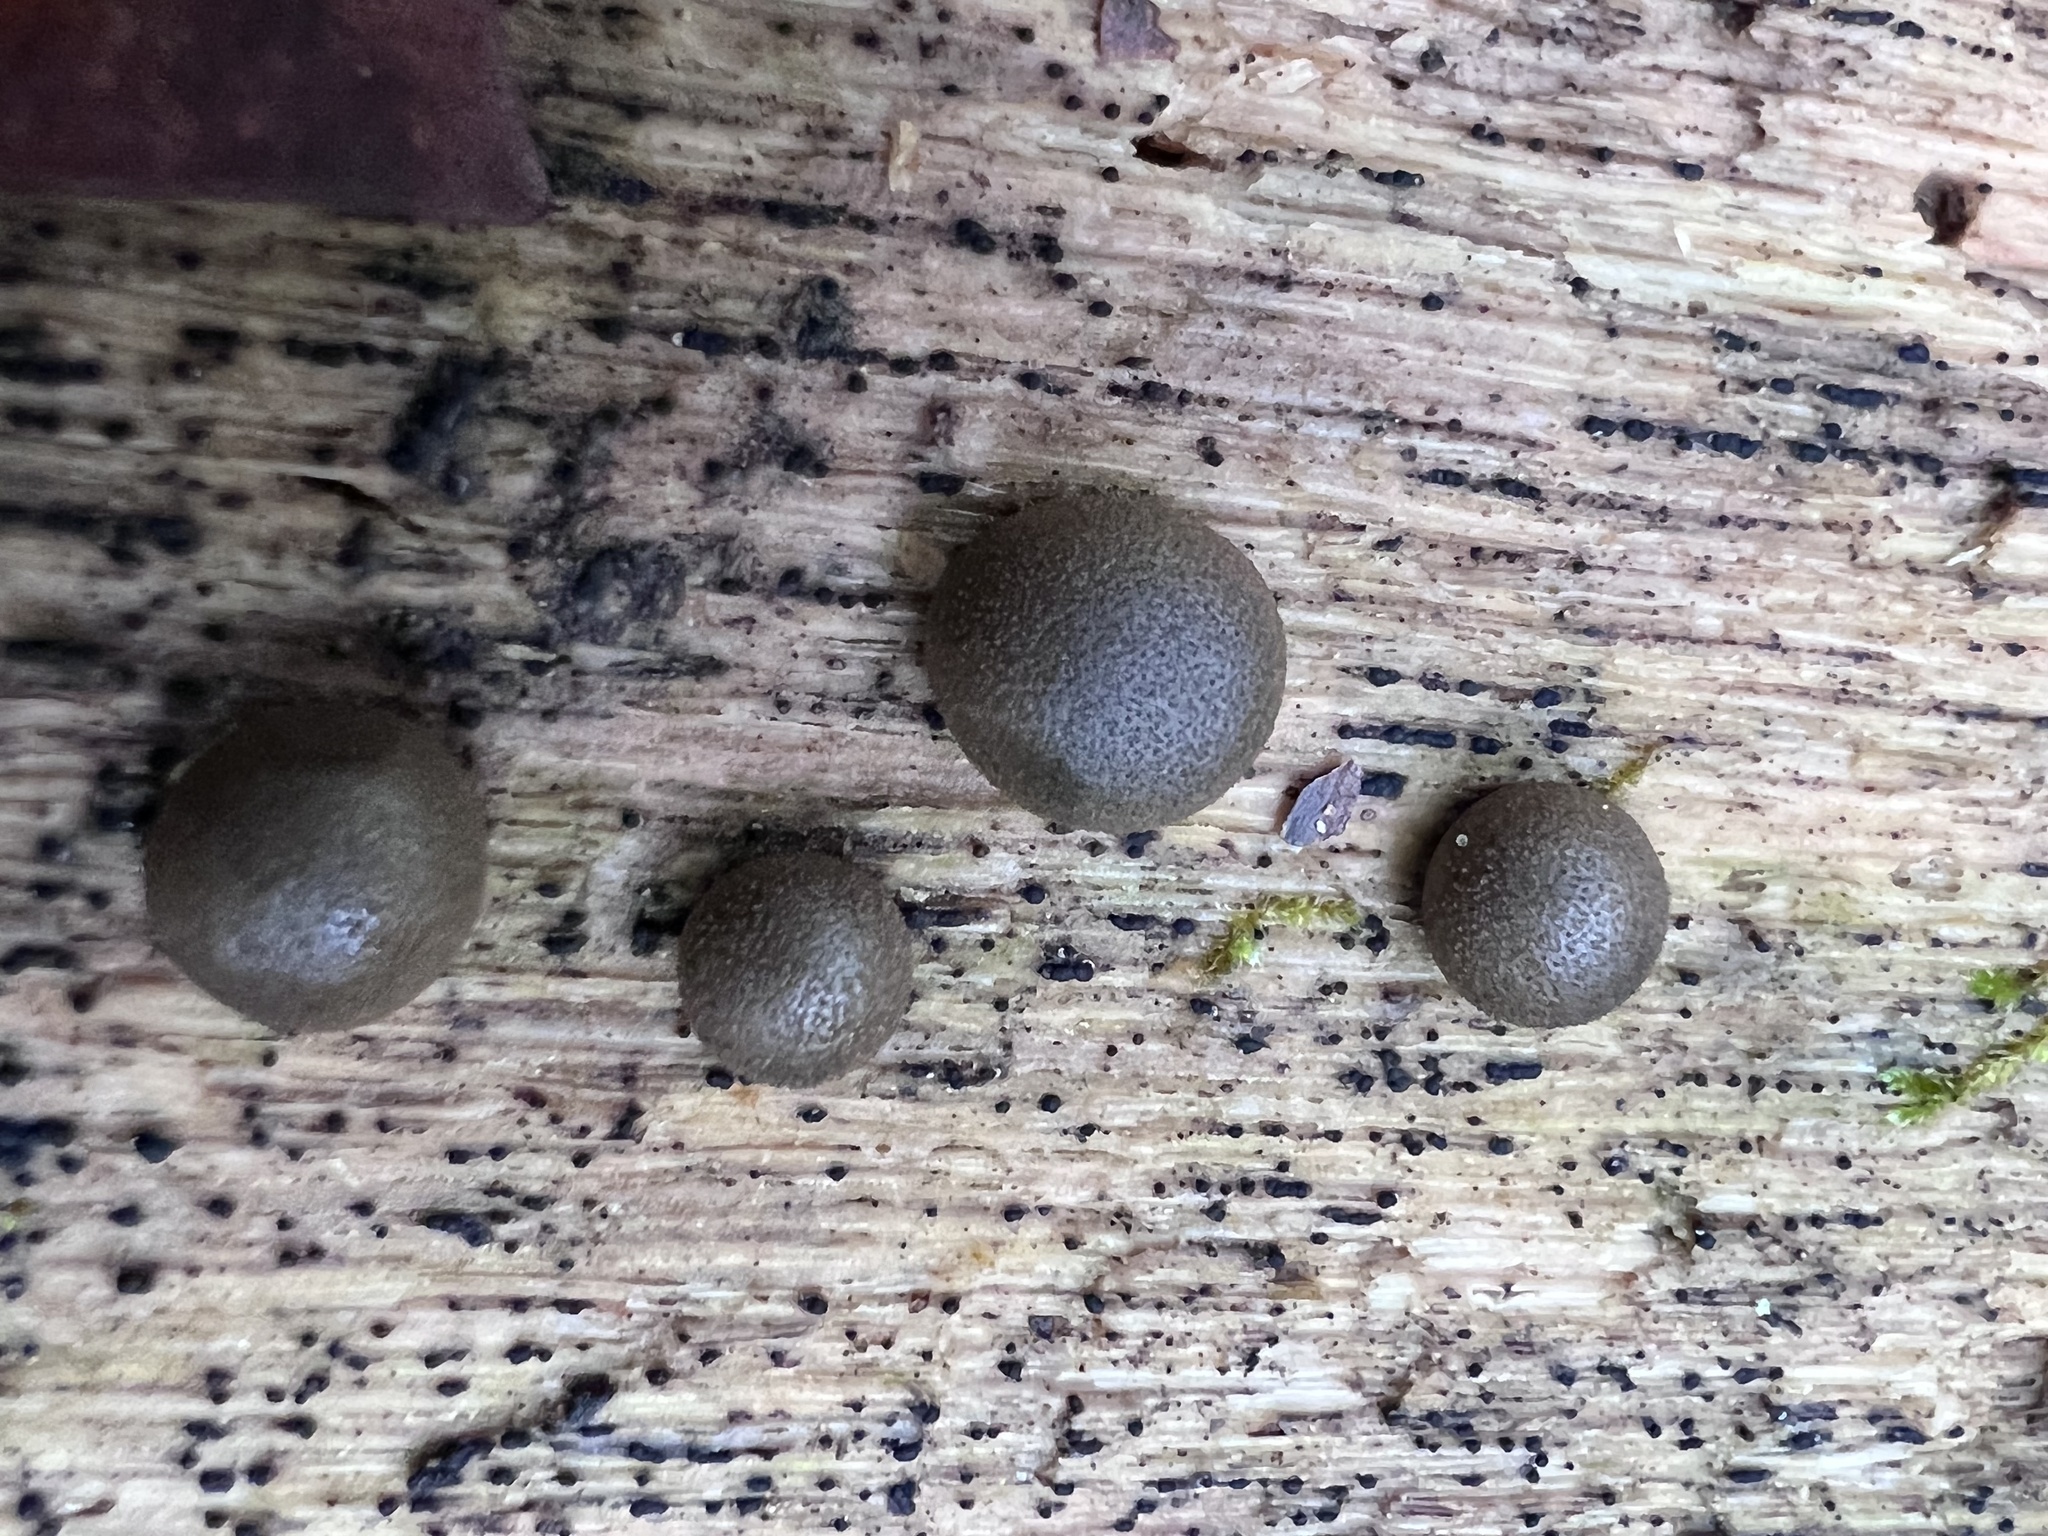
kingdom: Protozoa
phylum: Mycetozoa
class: Myxomycetes
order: Cribrariales
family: Tubiferaceae
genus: Lycogala
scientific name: Lycogala epidendrum
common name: Wolf's milk
